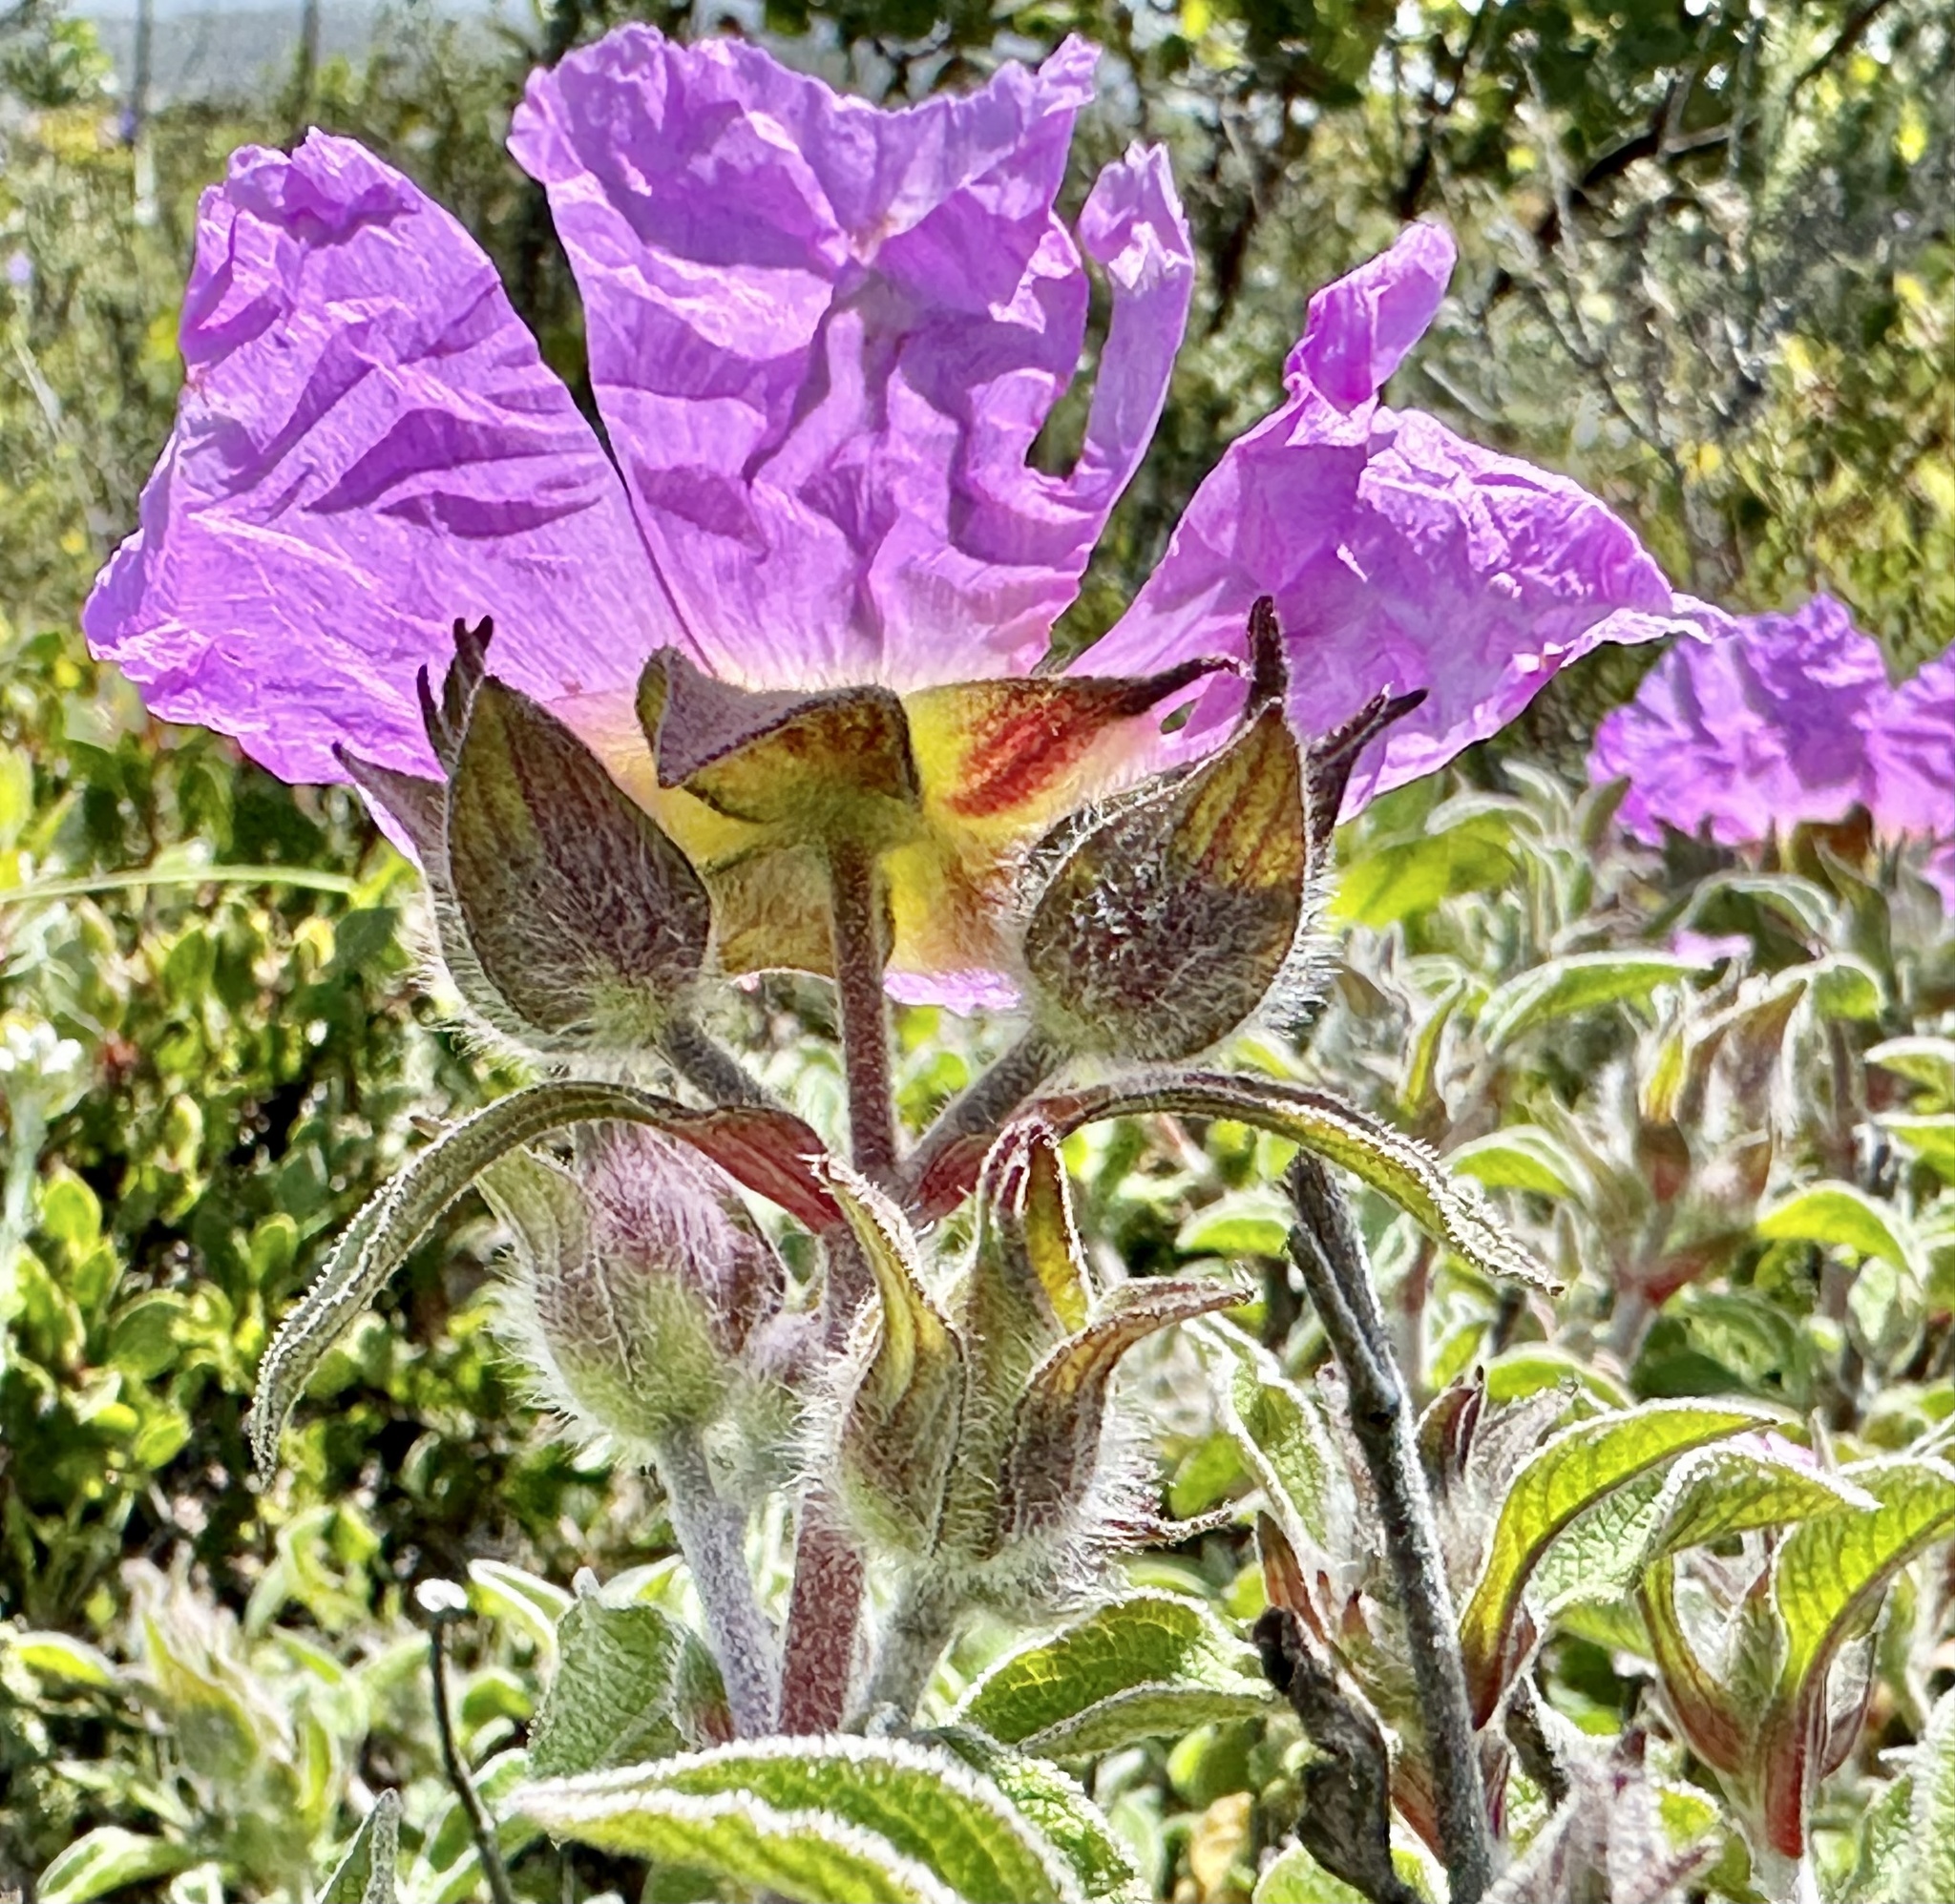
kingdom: Plantae
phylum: Tracheophyta
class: Magnoliopsida
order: Malvales
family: Cistaceae
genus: Cistus
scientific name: Cistus creticus
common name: Cretan rockrose
